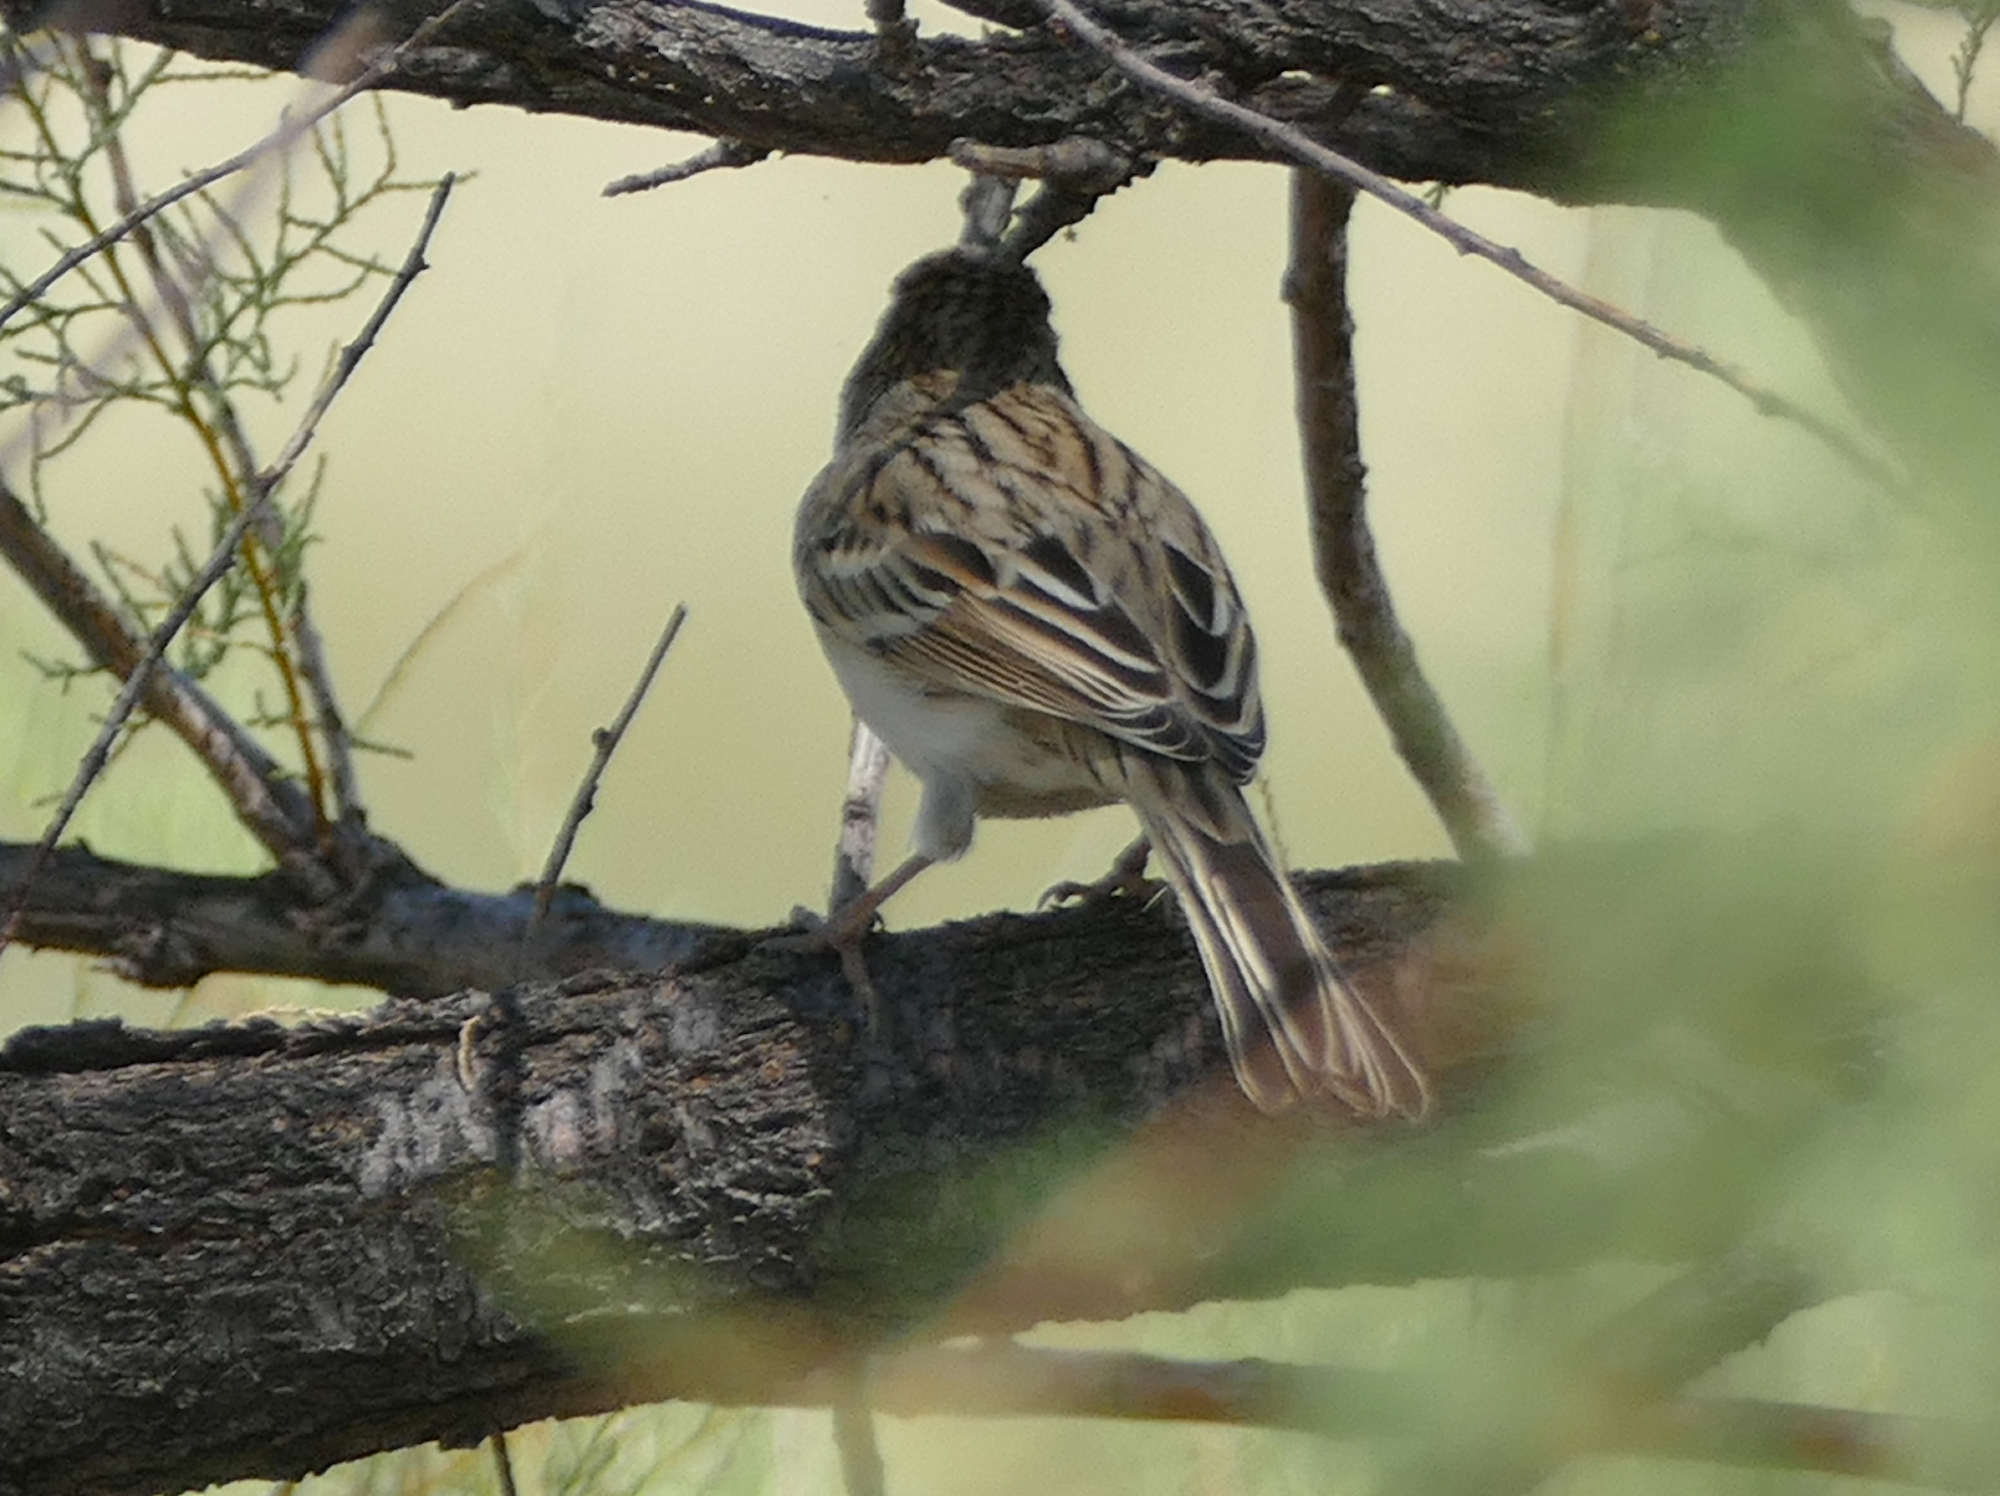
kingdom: Animalia
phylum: Chordata
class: Aves
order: Passeriformes
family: Passerellidae
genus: Spizella
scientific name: Spizella pusilla
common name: Field sparrow
